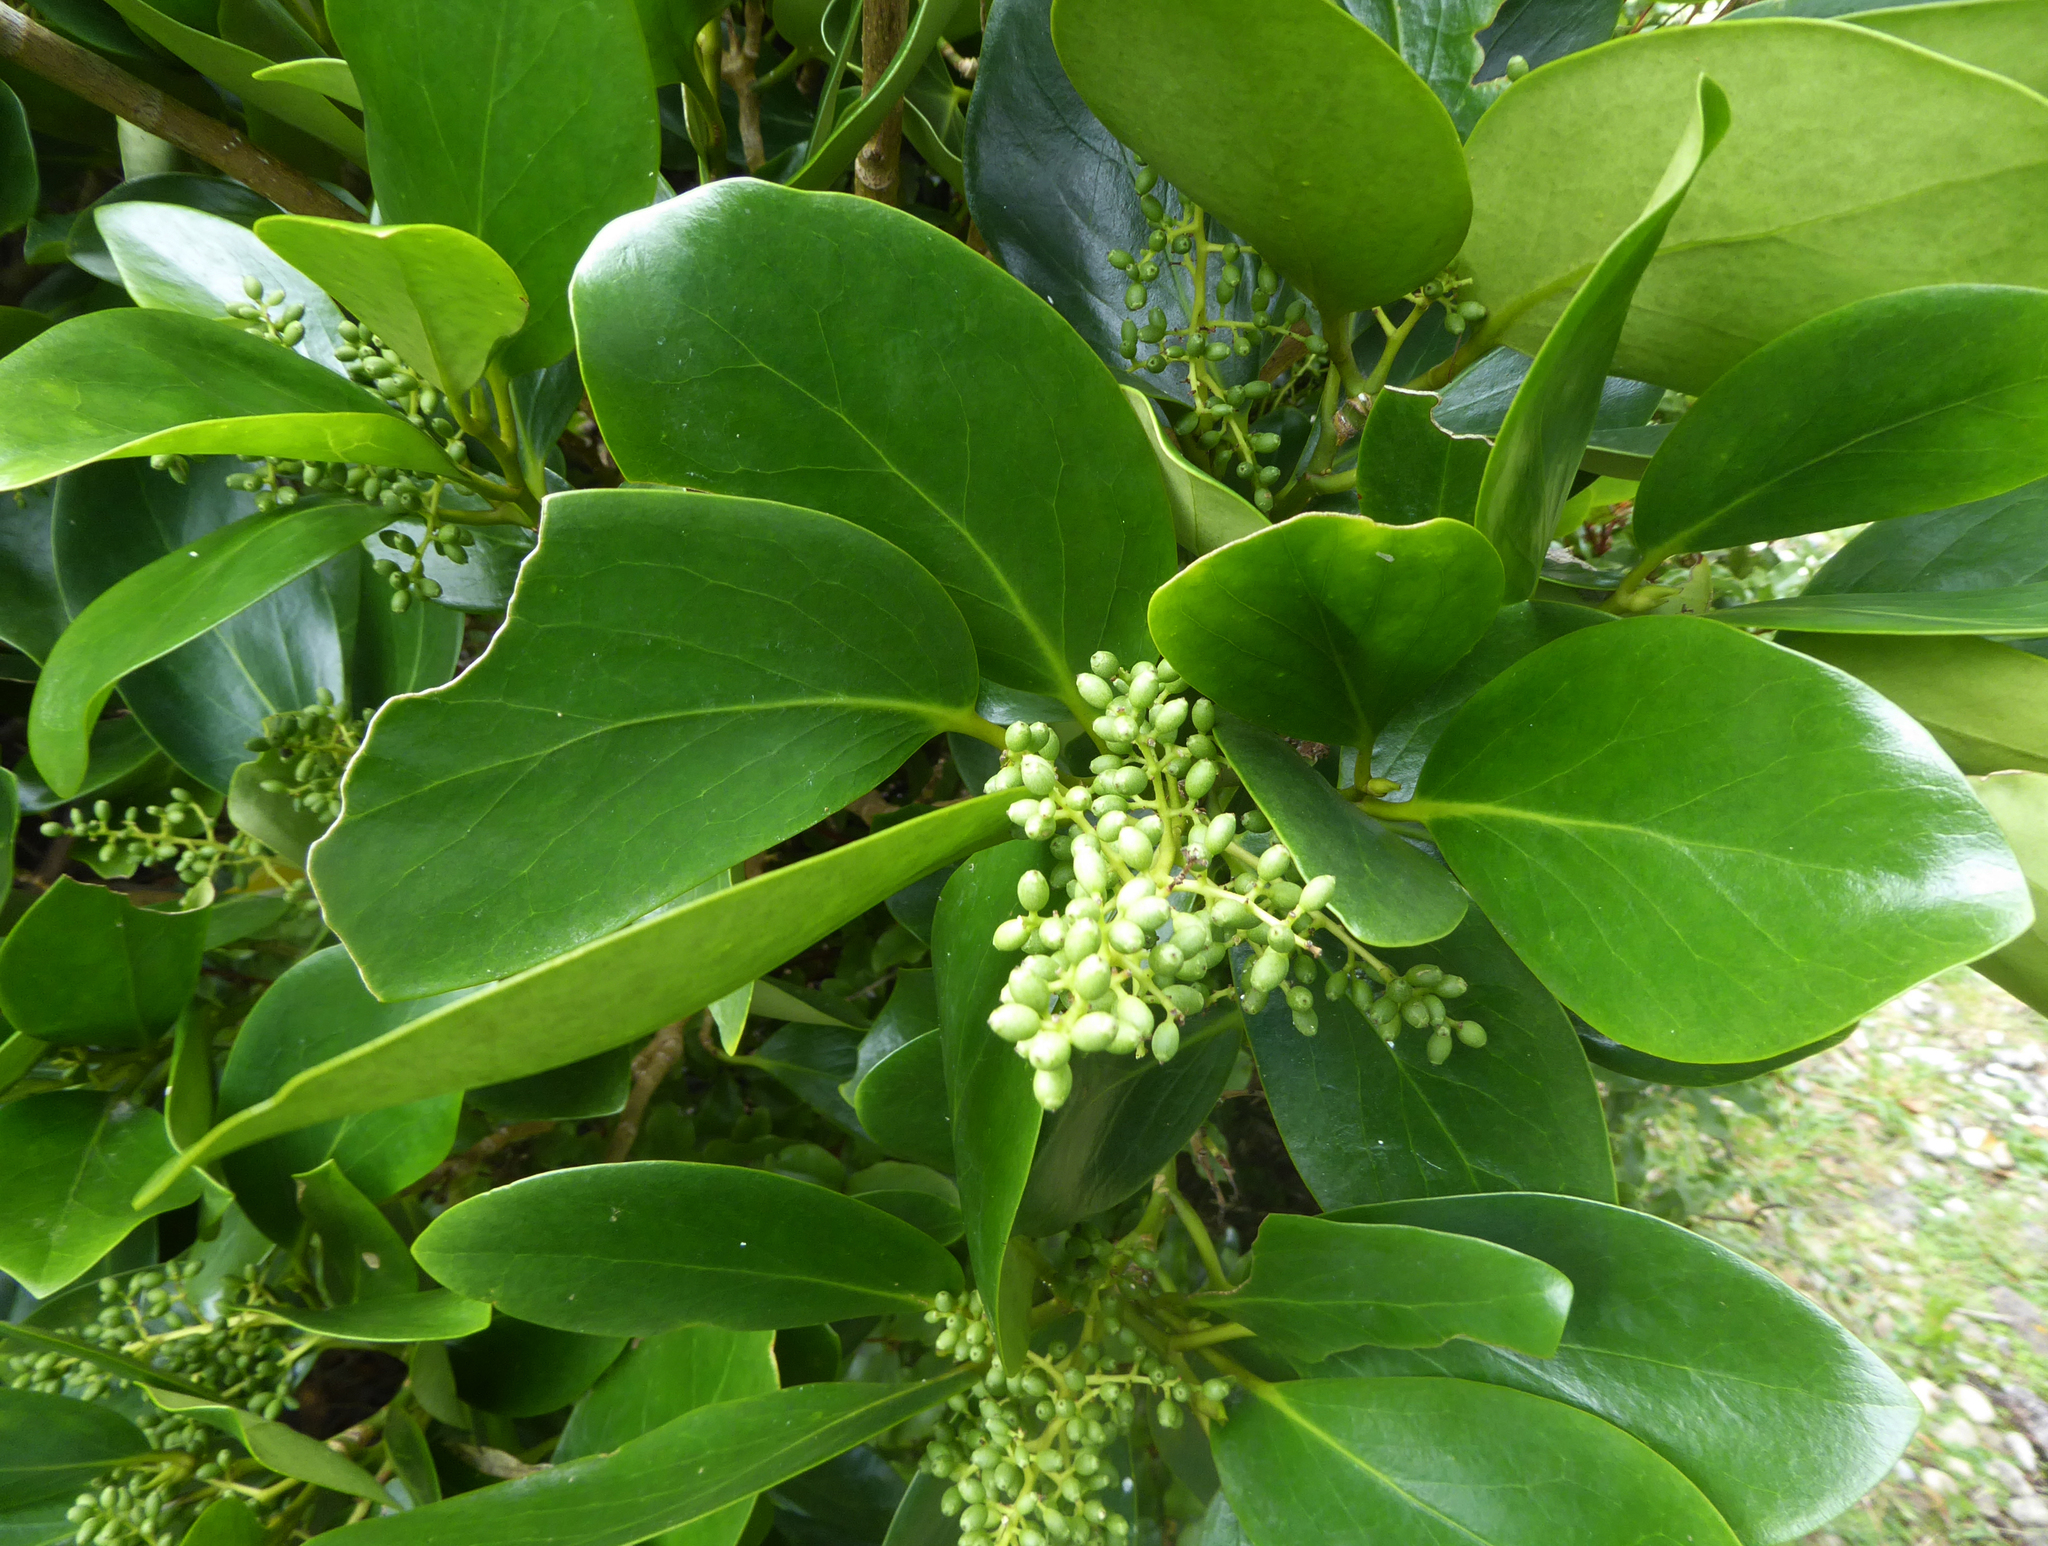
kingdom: Plantae
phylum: Tracheophyta
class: Magnoliopsida
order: Apiales
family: Griseliniaceae
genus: Griselinia
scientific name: Griselinia lucida
